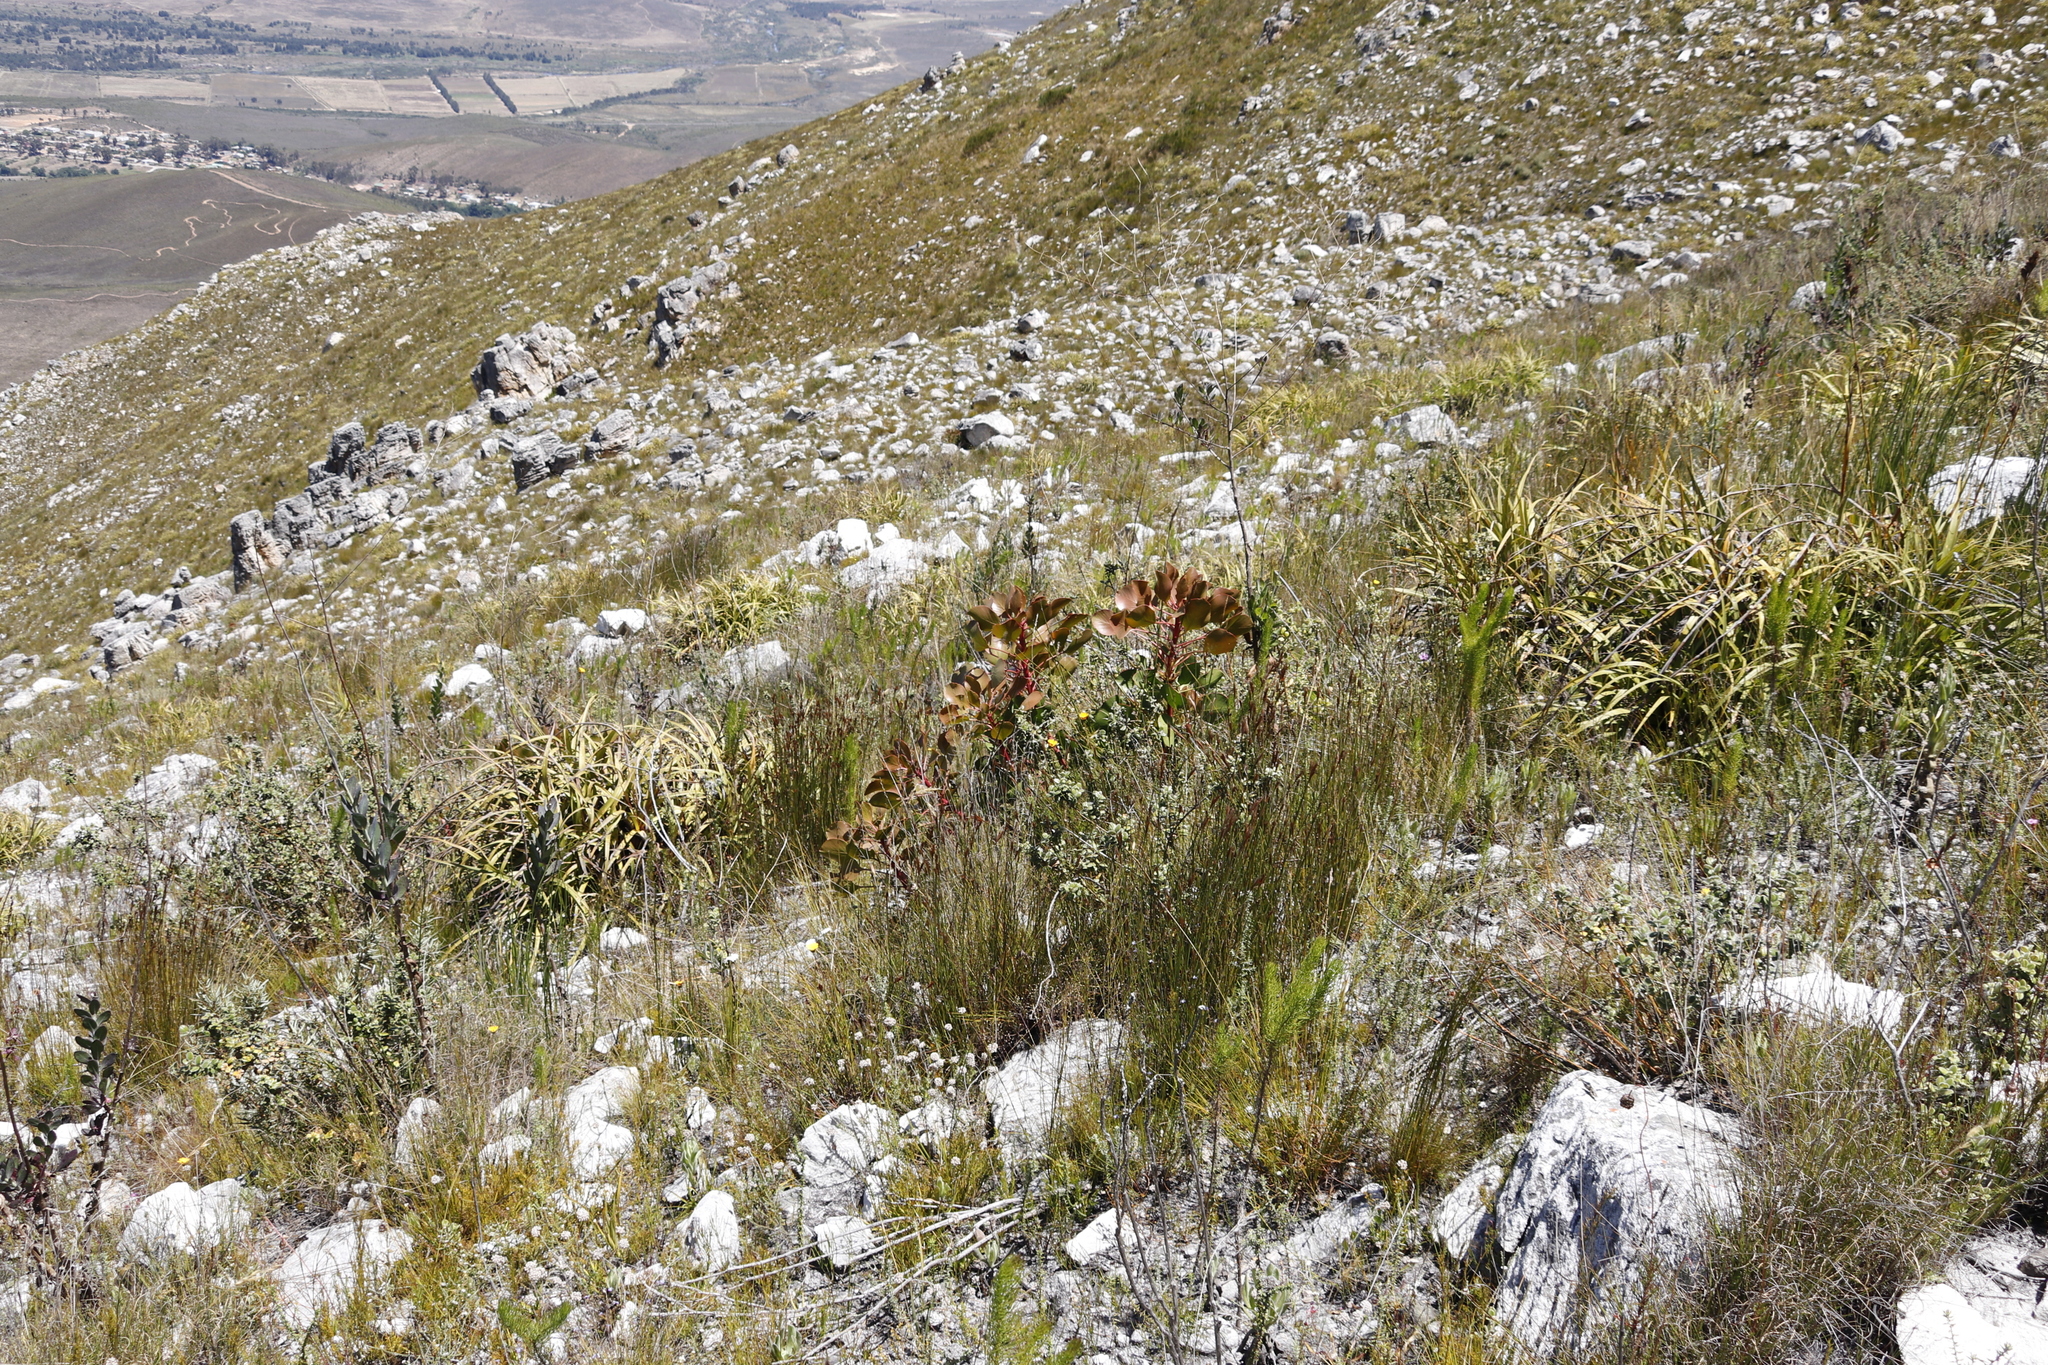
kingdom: Plantae
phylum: Tracheophyta
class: Magnoliopsida
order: Proteales
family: Proteaceae
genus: Protea
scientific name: Protea cynaroides
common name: King protea
